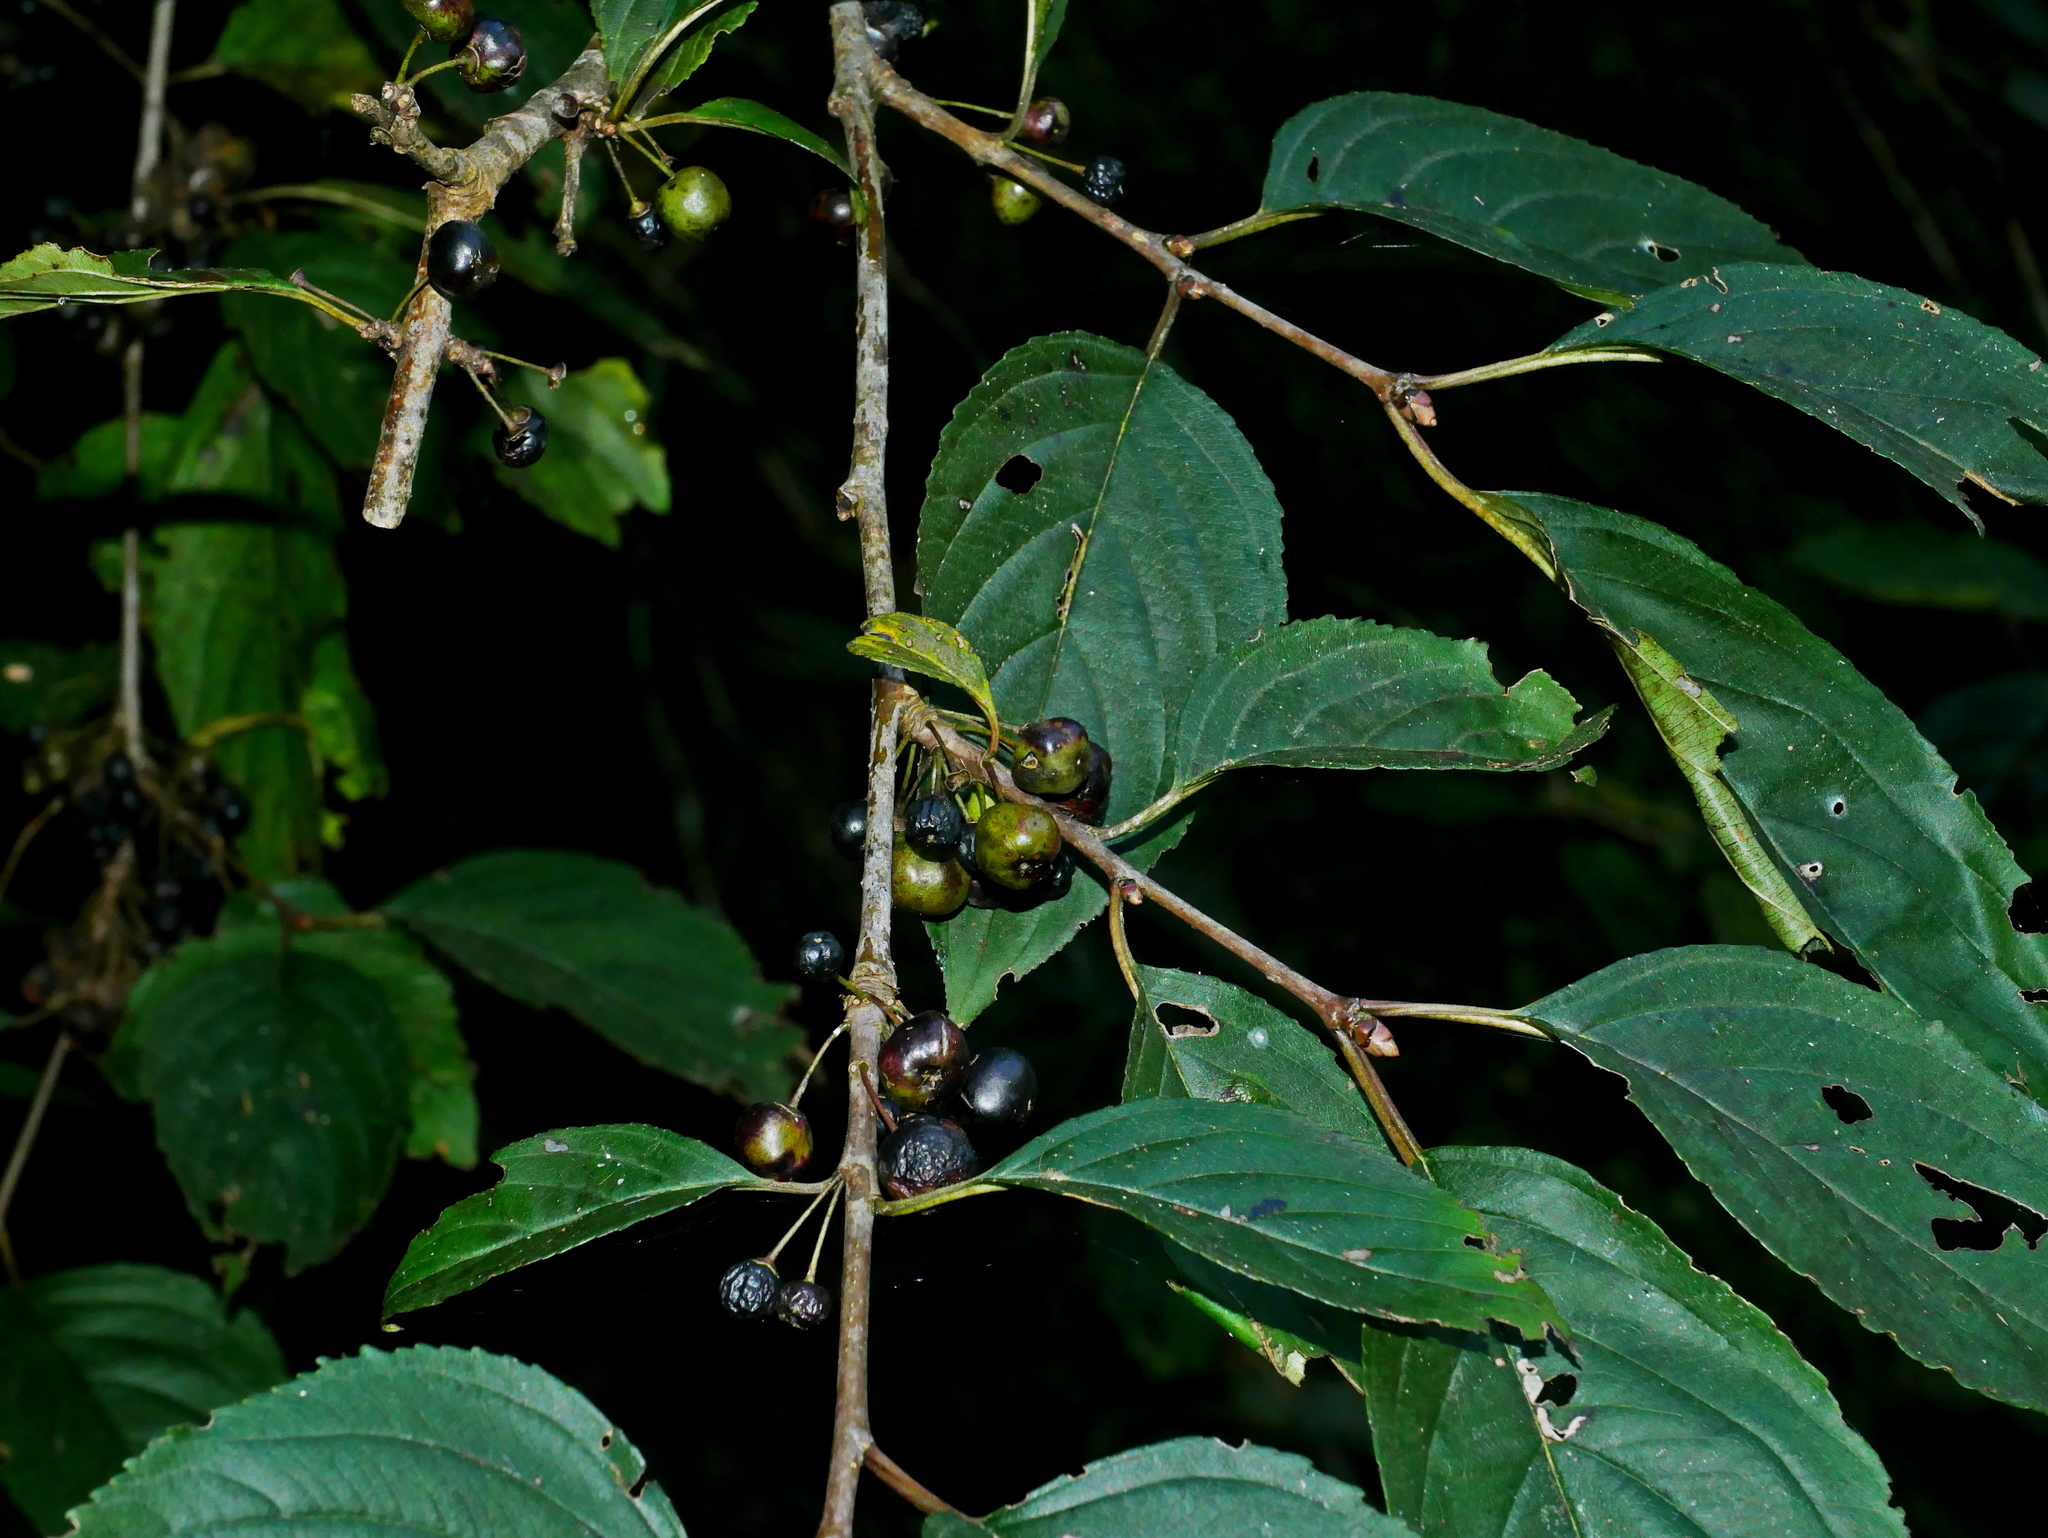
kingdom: Plantae
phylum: Tracheophyta
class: Magnoliopsida
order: Rosales
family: Rhamnaceae
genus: Rhamnus
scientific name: Rhamnus nakaharae
